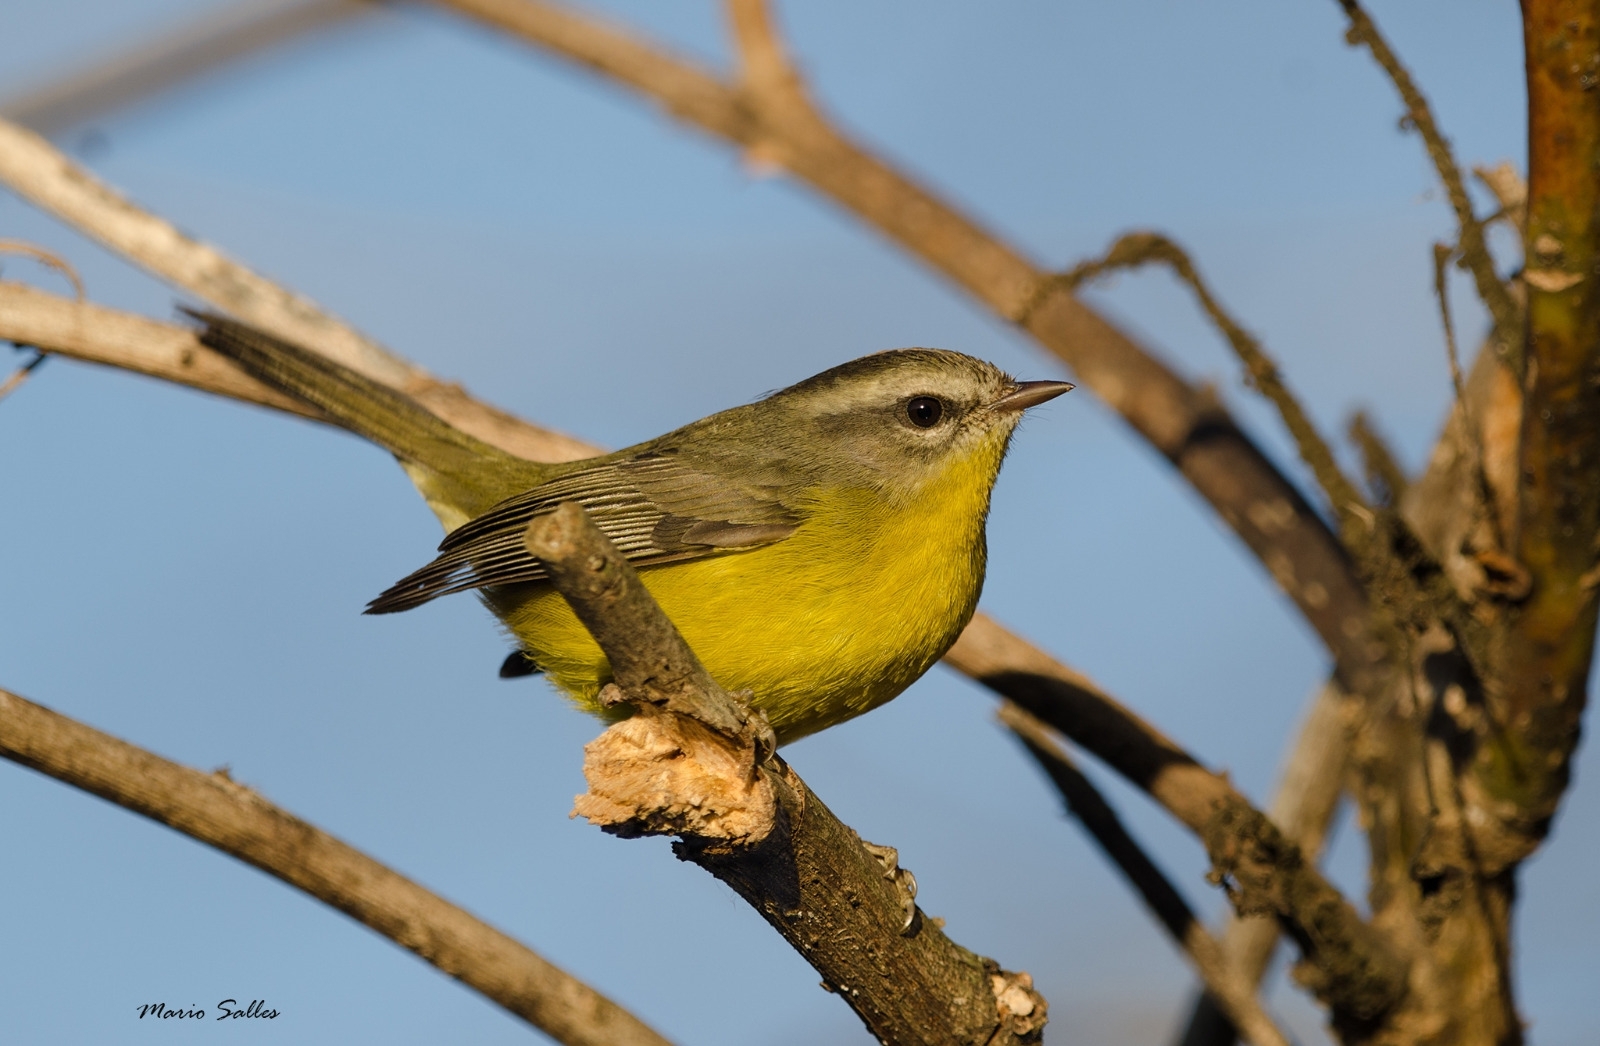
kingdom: Animalia
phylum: Chordata
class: Aves
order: Passeriformes
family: Parulidae
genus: Basileuterus
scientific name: Basileuterus culicivorus
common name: Golden-crowned warbler
